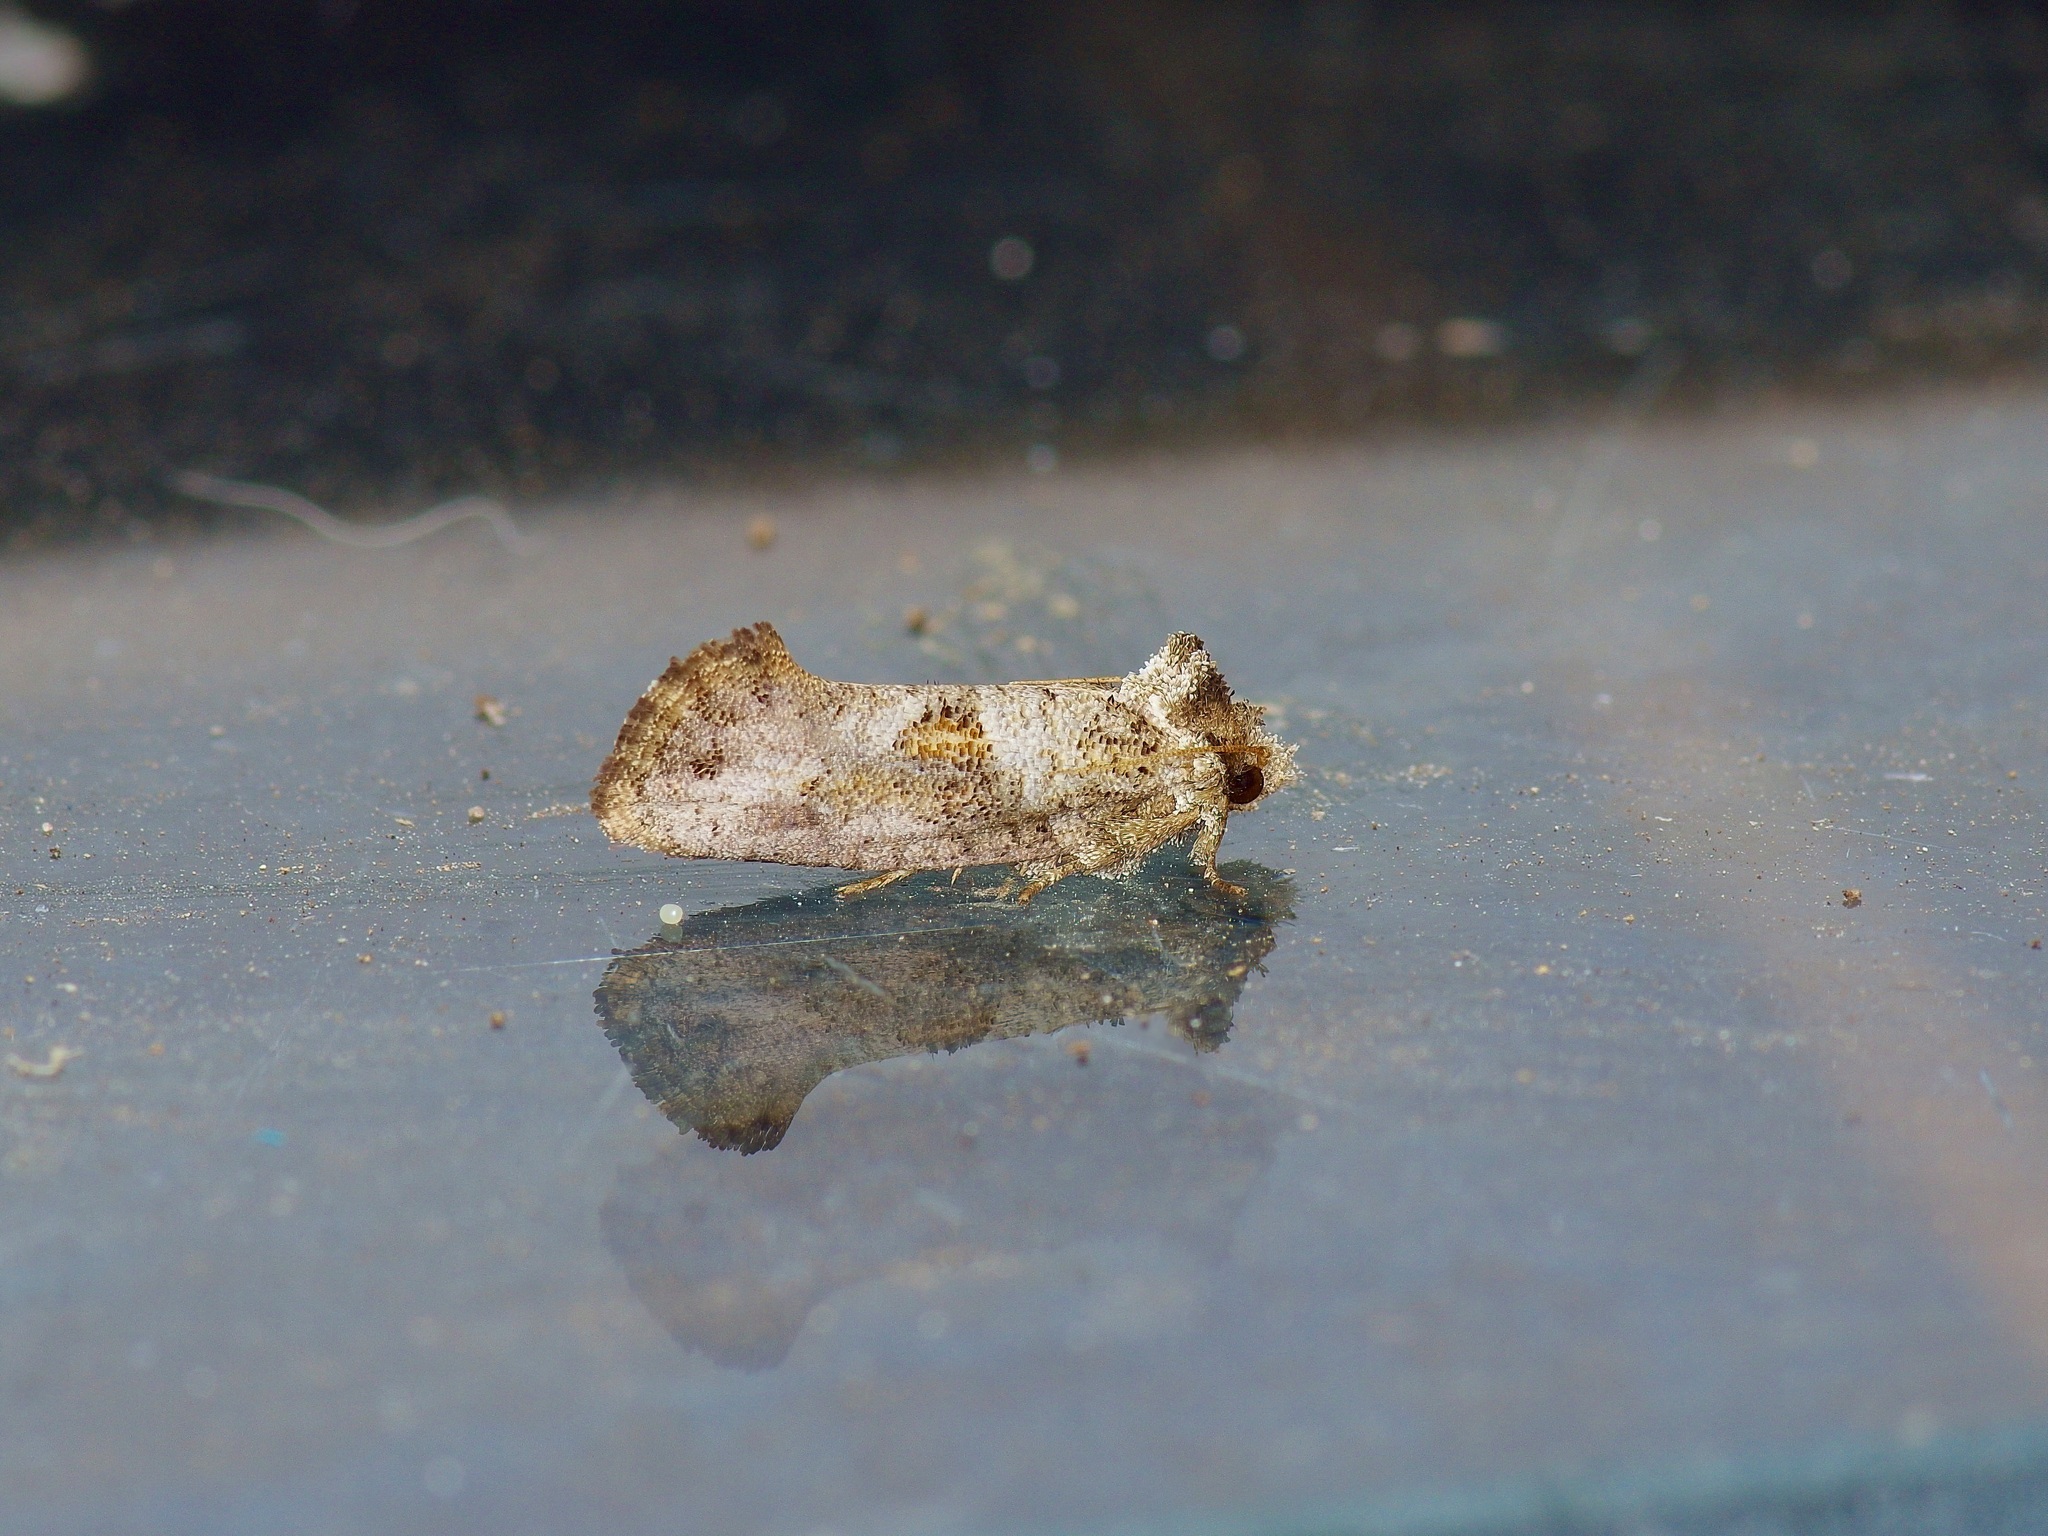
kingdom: Animalia
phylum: Arthropoda
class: Insecta
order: Lepidoptera
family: Tineidae
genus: Acrolophus
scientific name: Acrolophus piger
